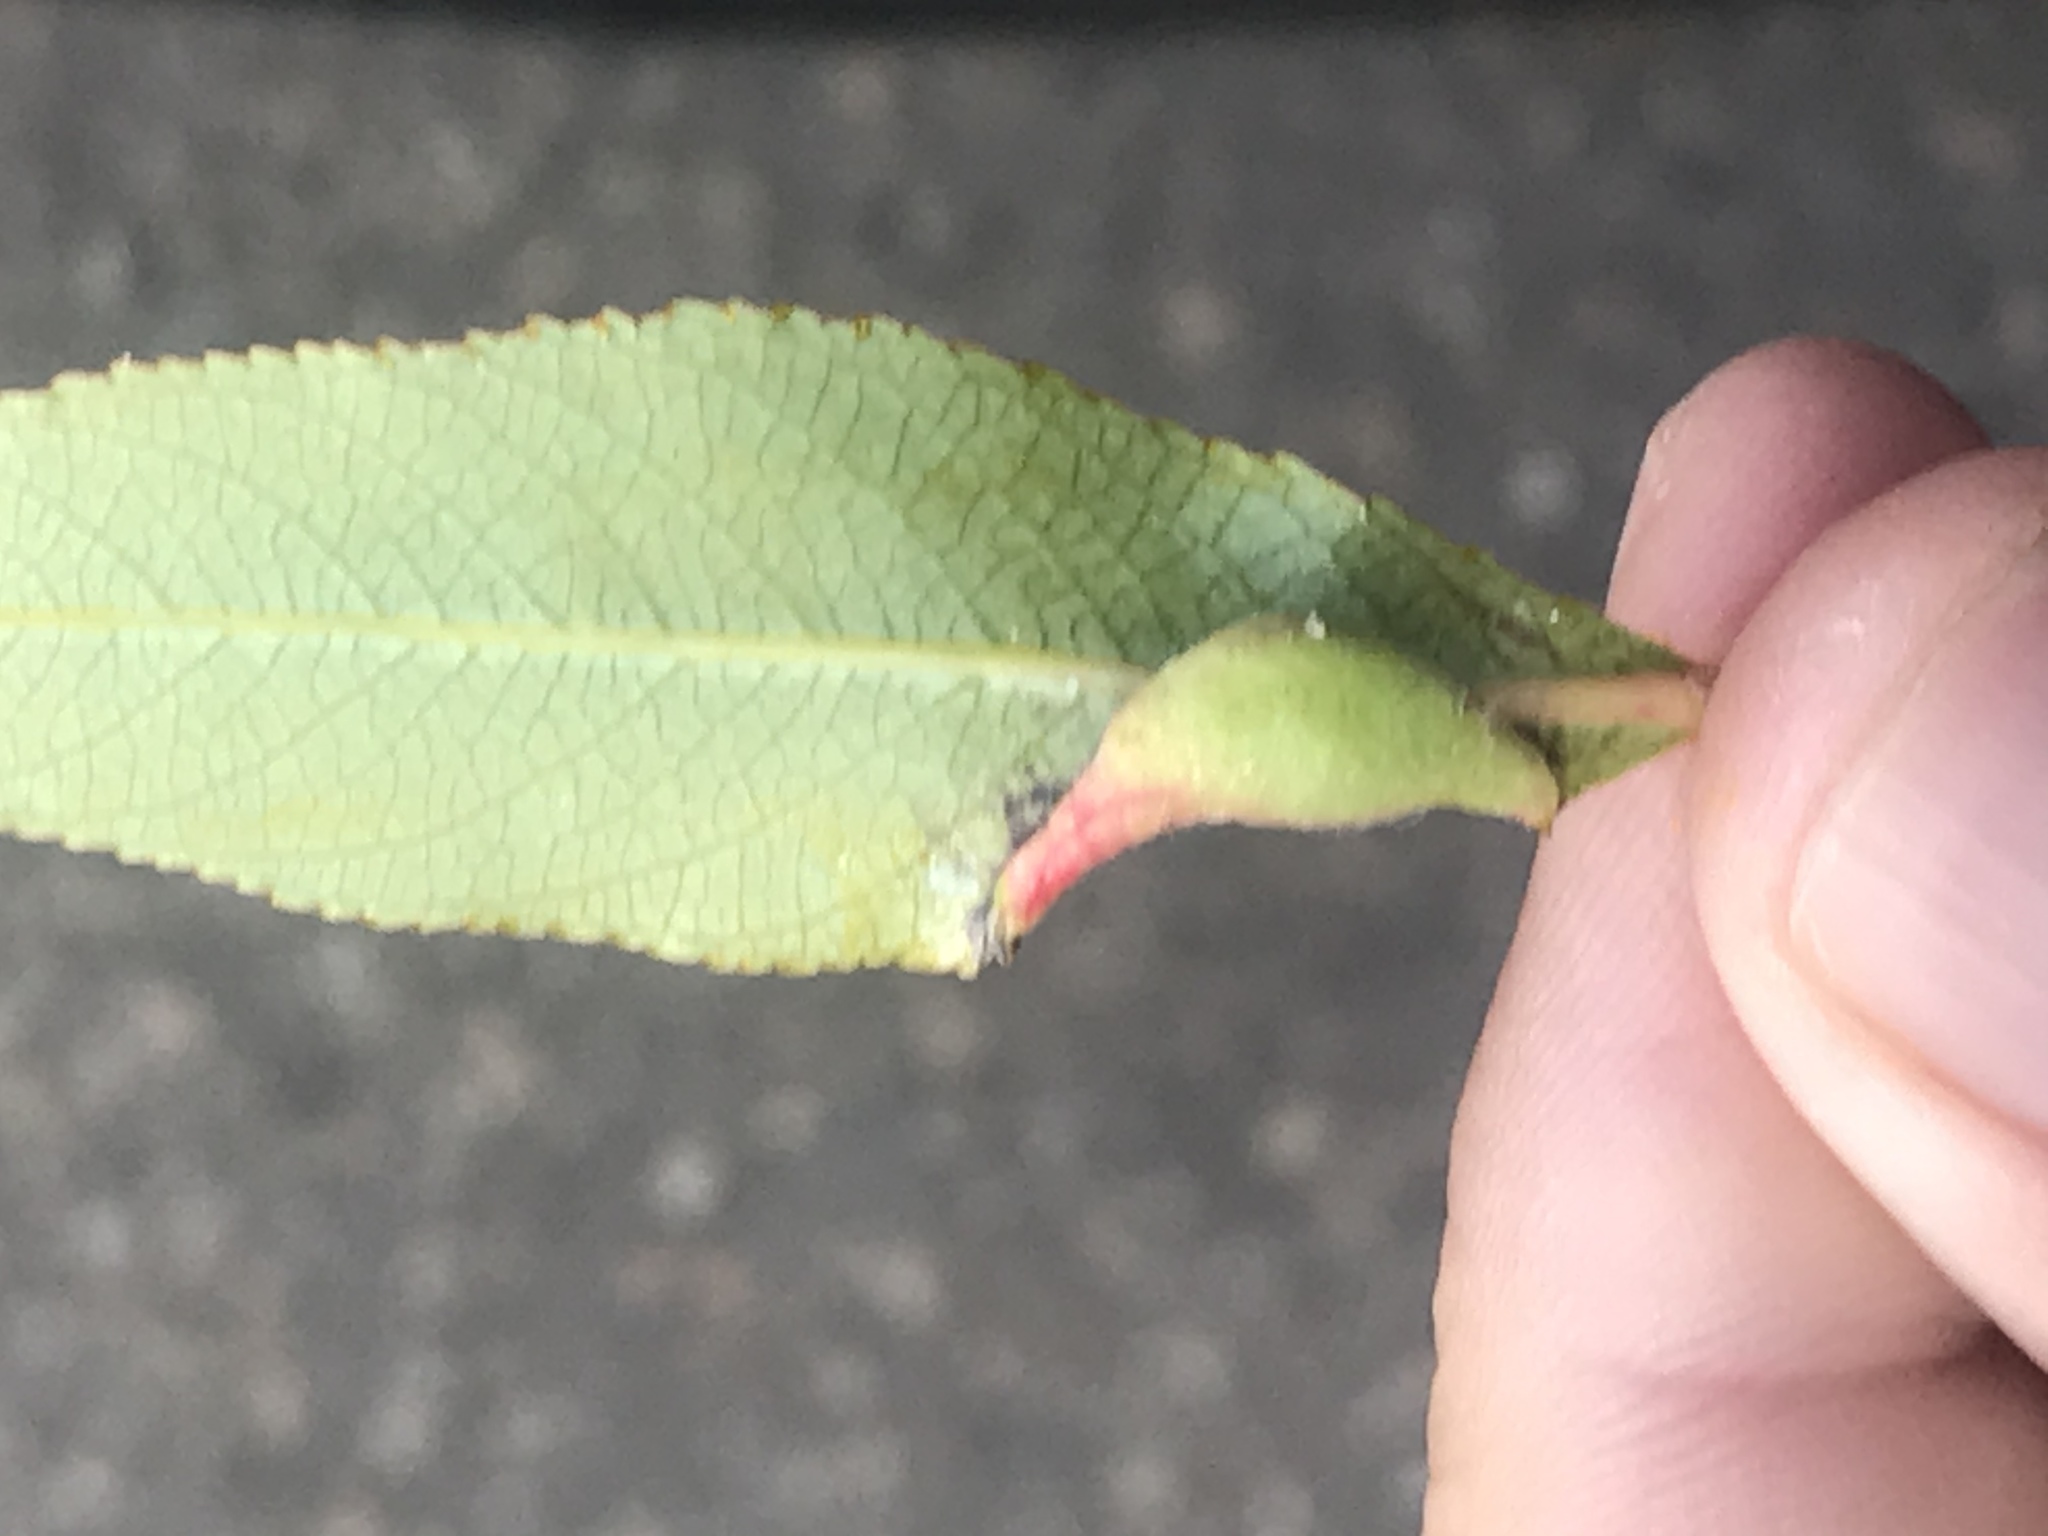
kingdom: Animalia
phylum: Arthropoda
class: Insecta
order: Hemiptera
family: Aphididae
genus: Cornaphis
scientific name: Cornaphis populi
